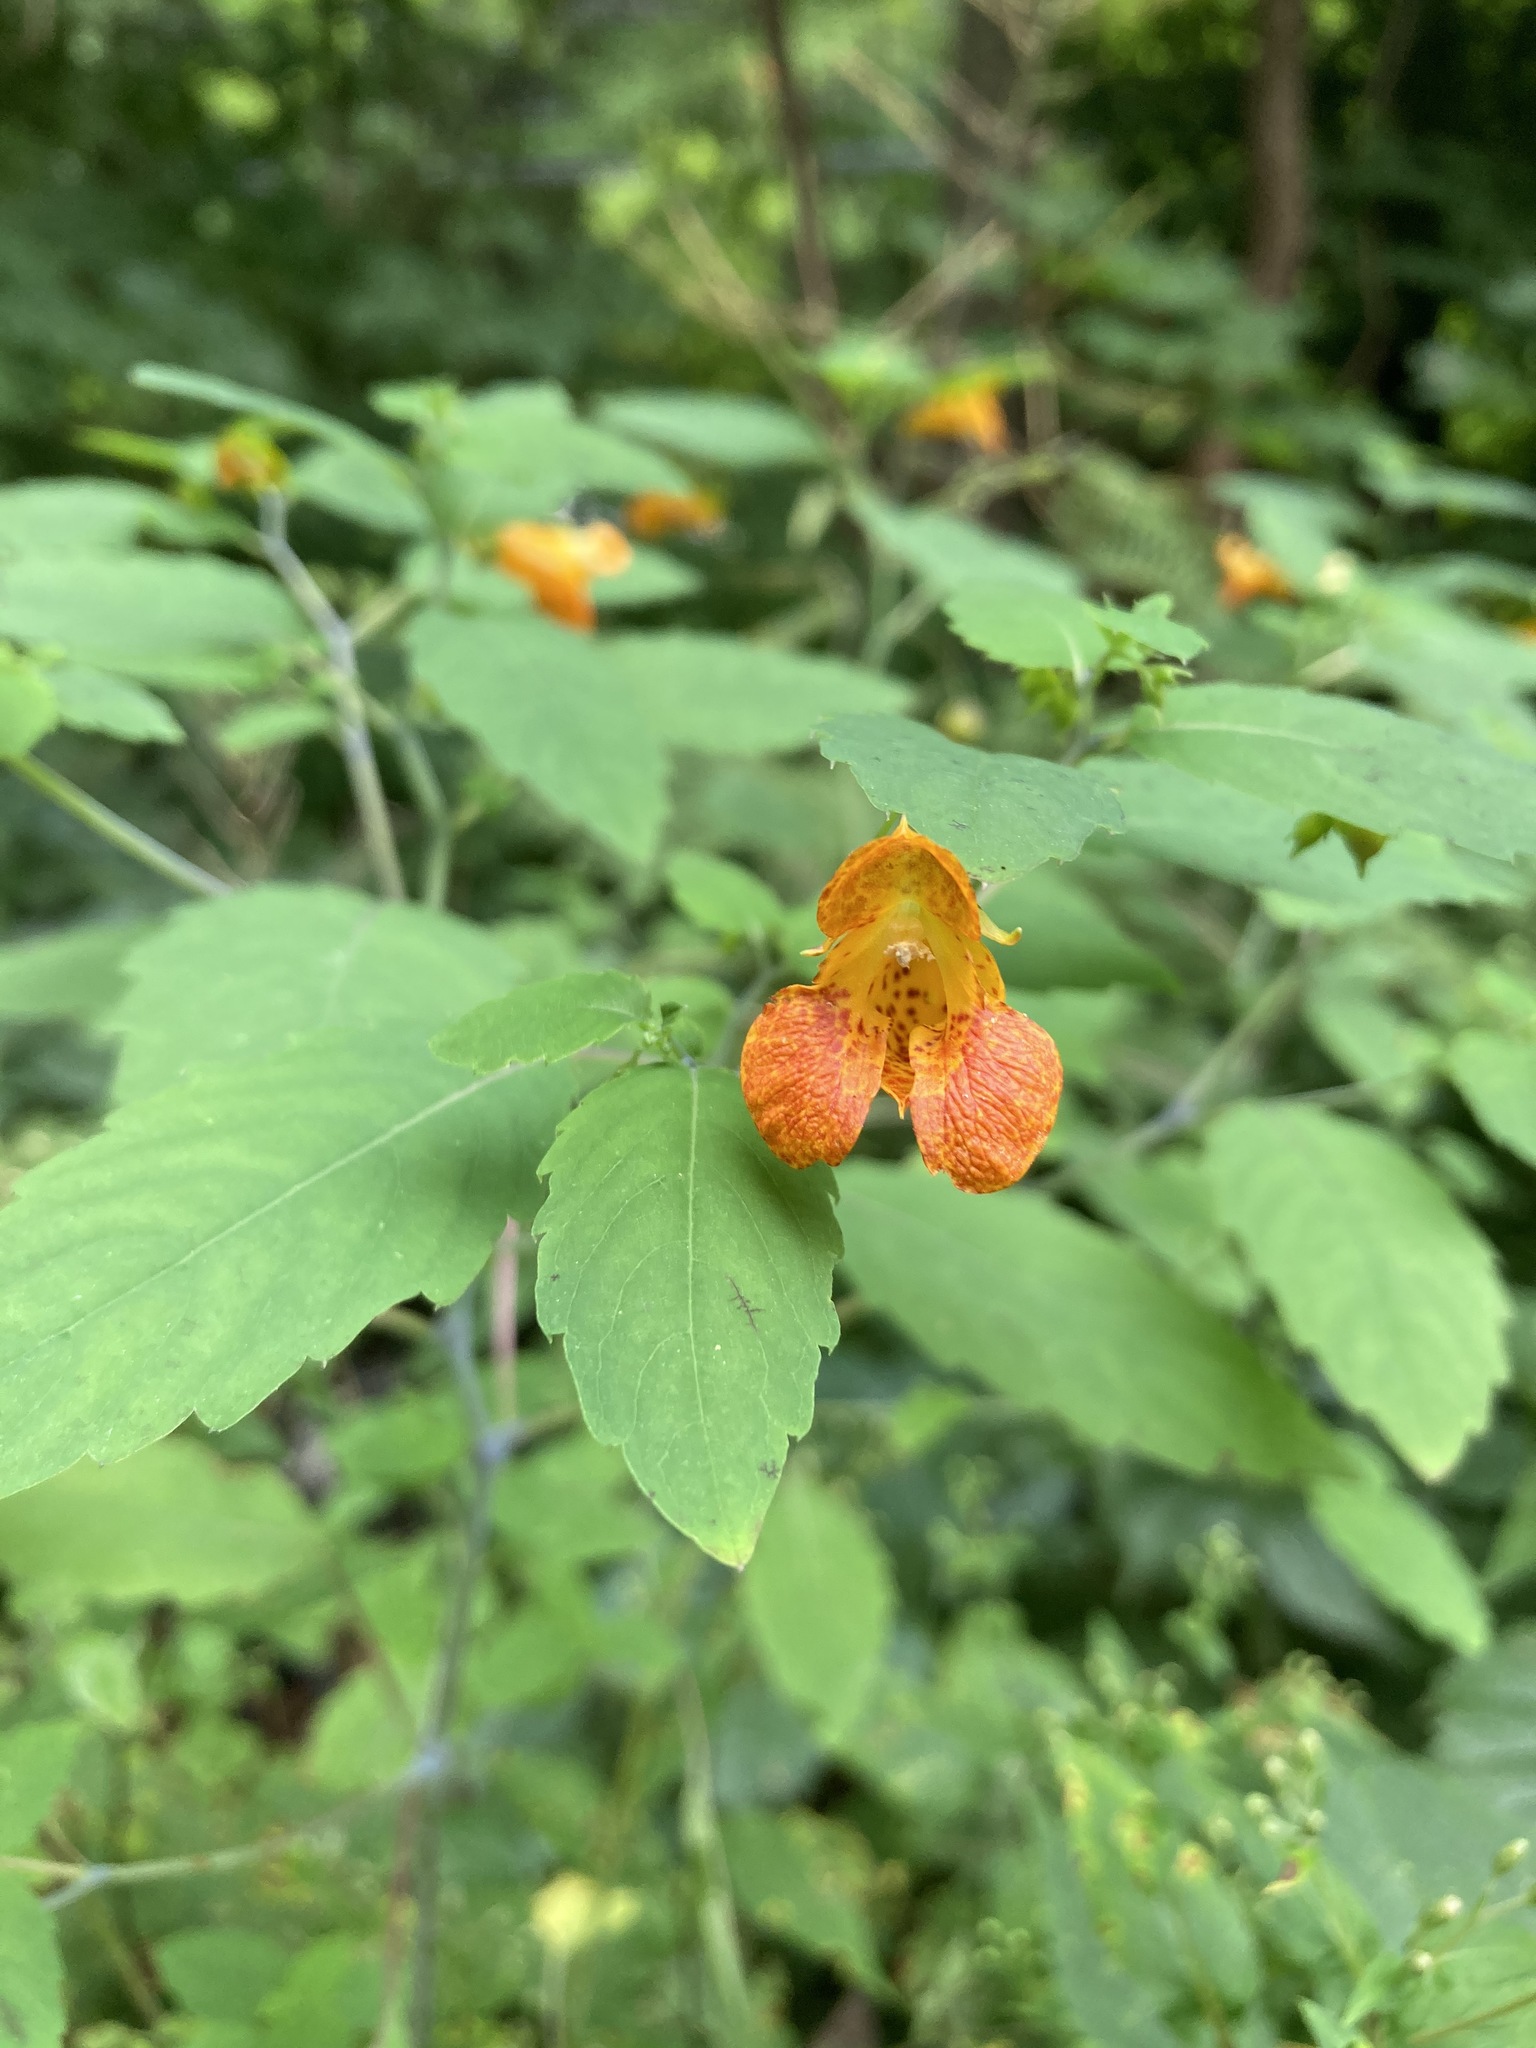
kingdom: Plantae
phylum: Tracheophyta
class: Magnoliopsida
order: Ericales
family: Balsaminaceae
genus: Impatiens
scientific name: Impatiens capensis
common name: Orange balsam
